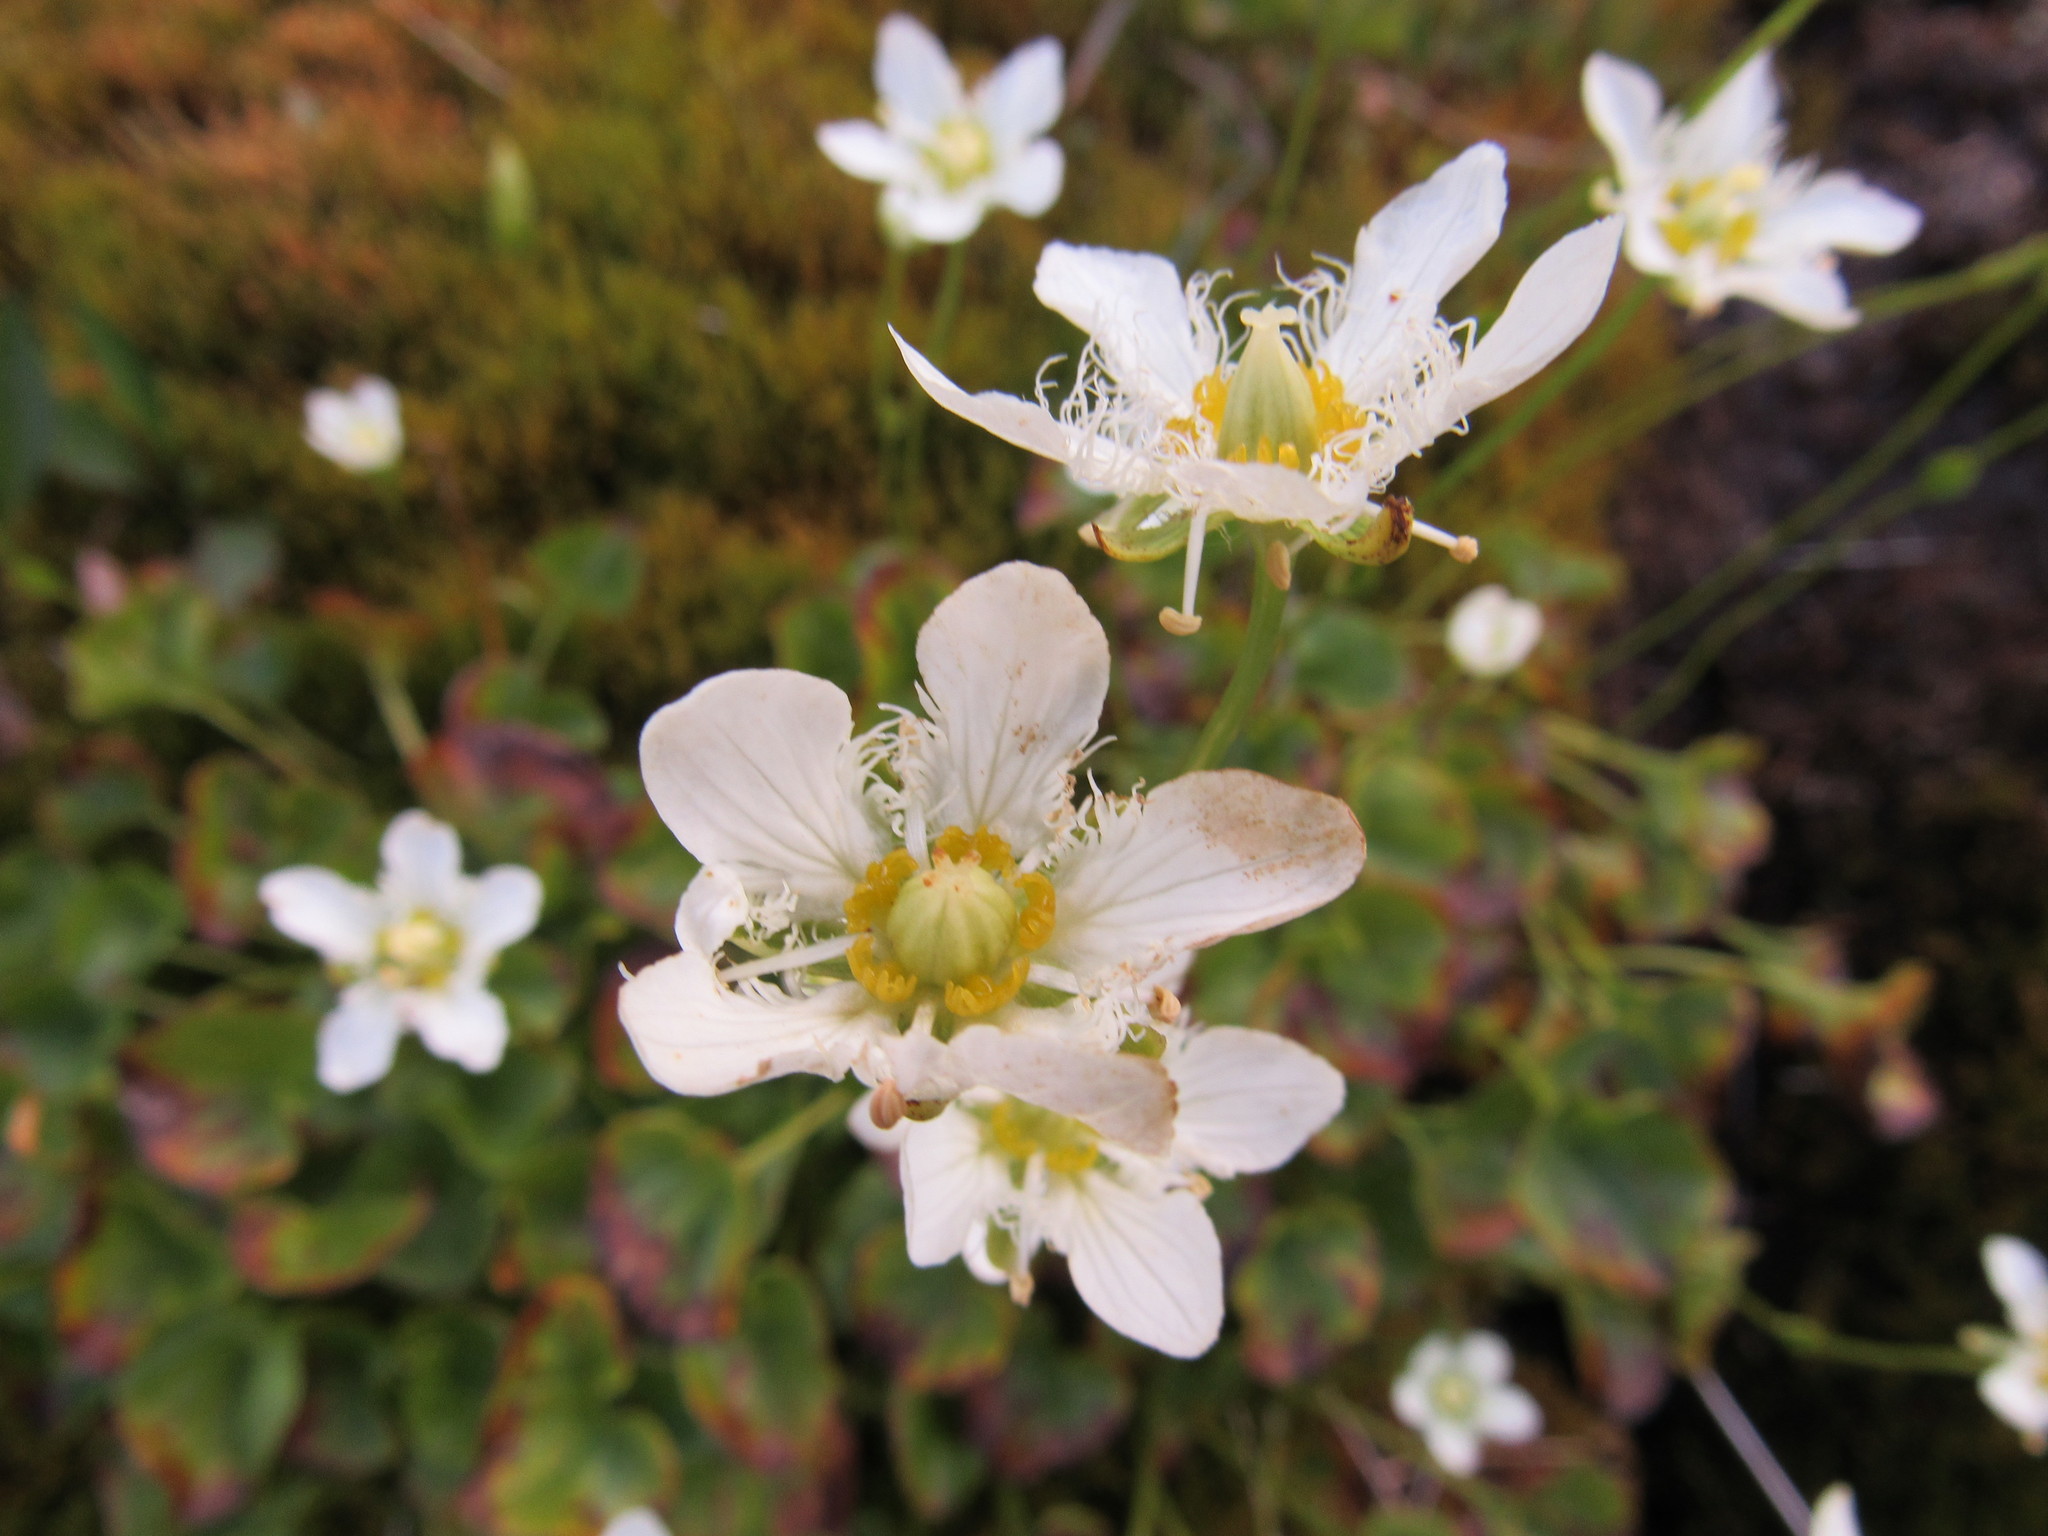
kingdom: Plantae
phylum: Tracheophyta
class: Magnoliopsida
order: Celastrales
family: Parnassiaceae
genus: Parnassia
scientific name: Parnassia fimbriata
